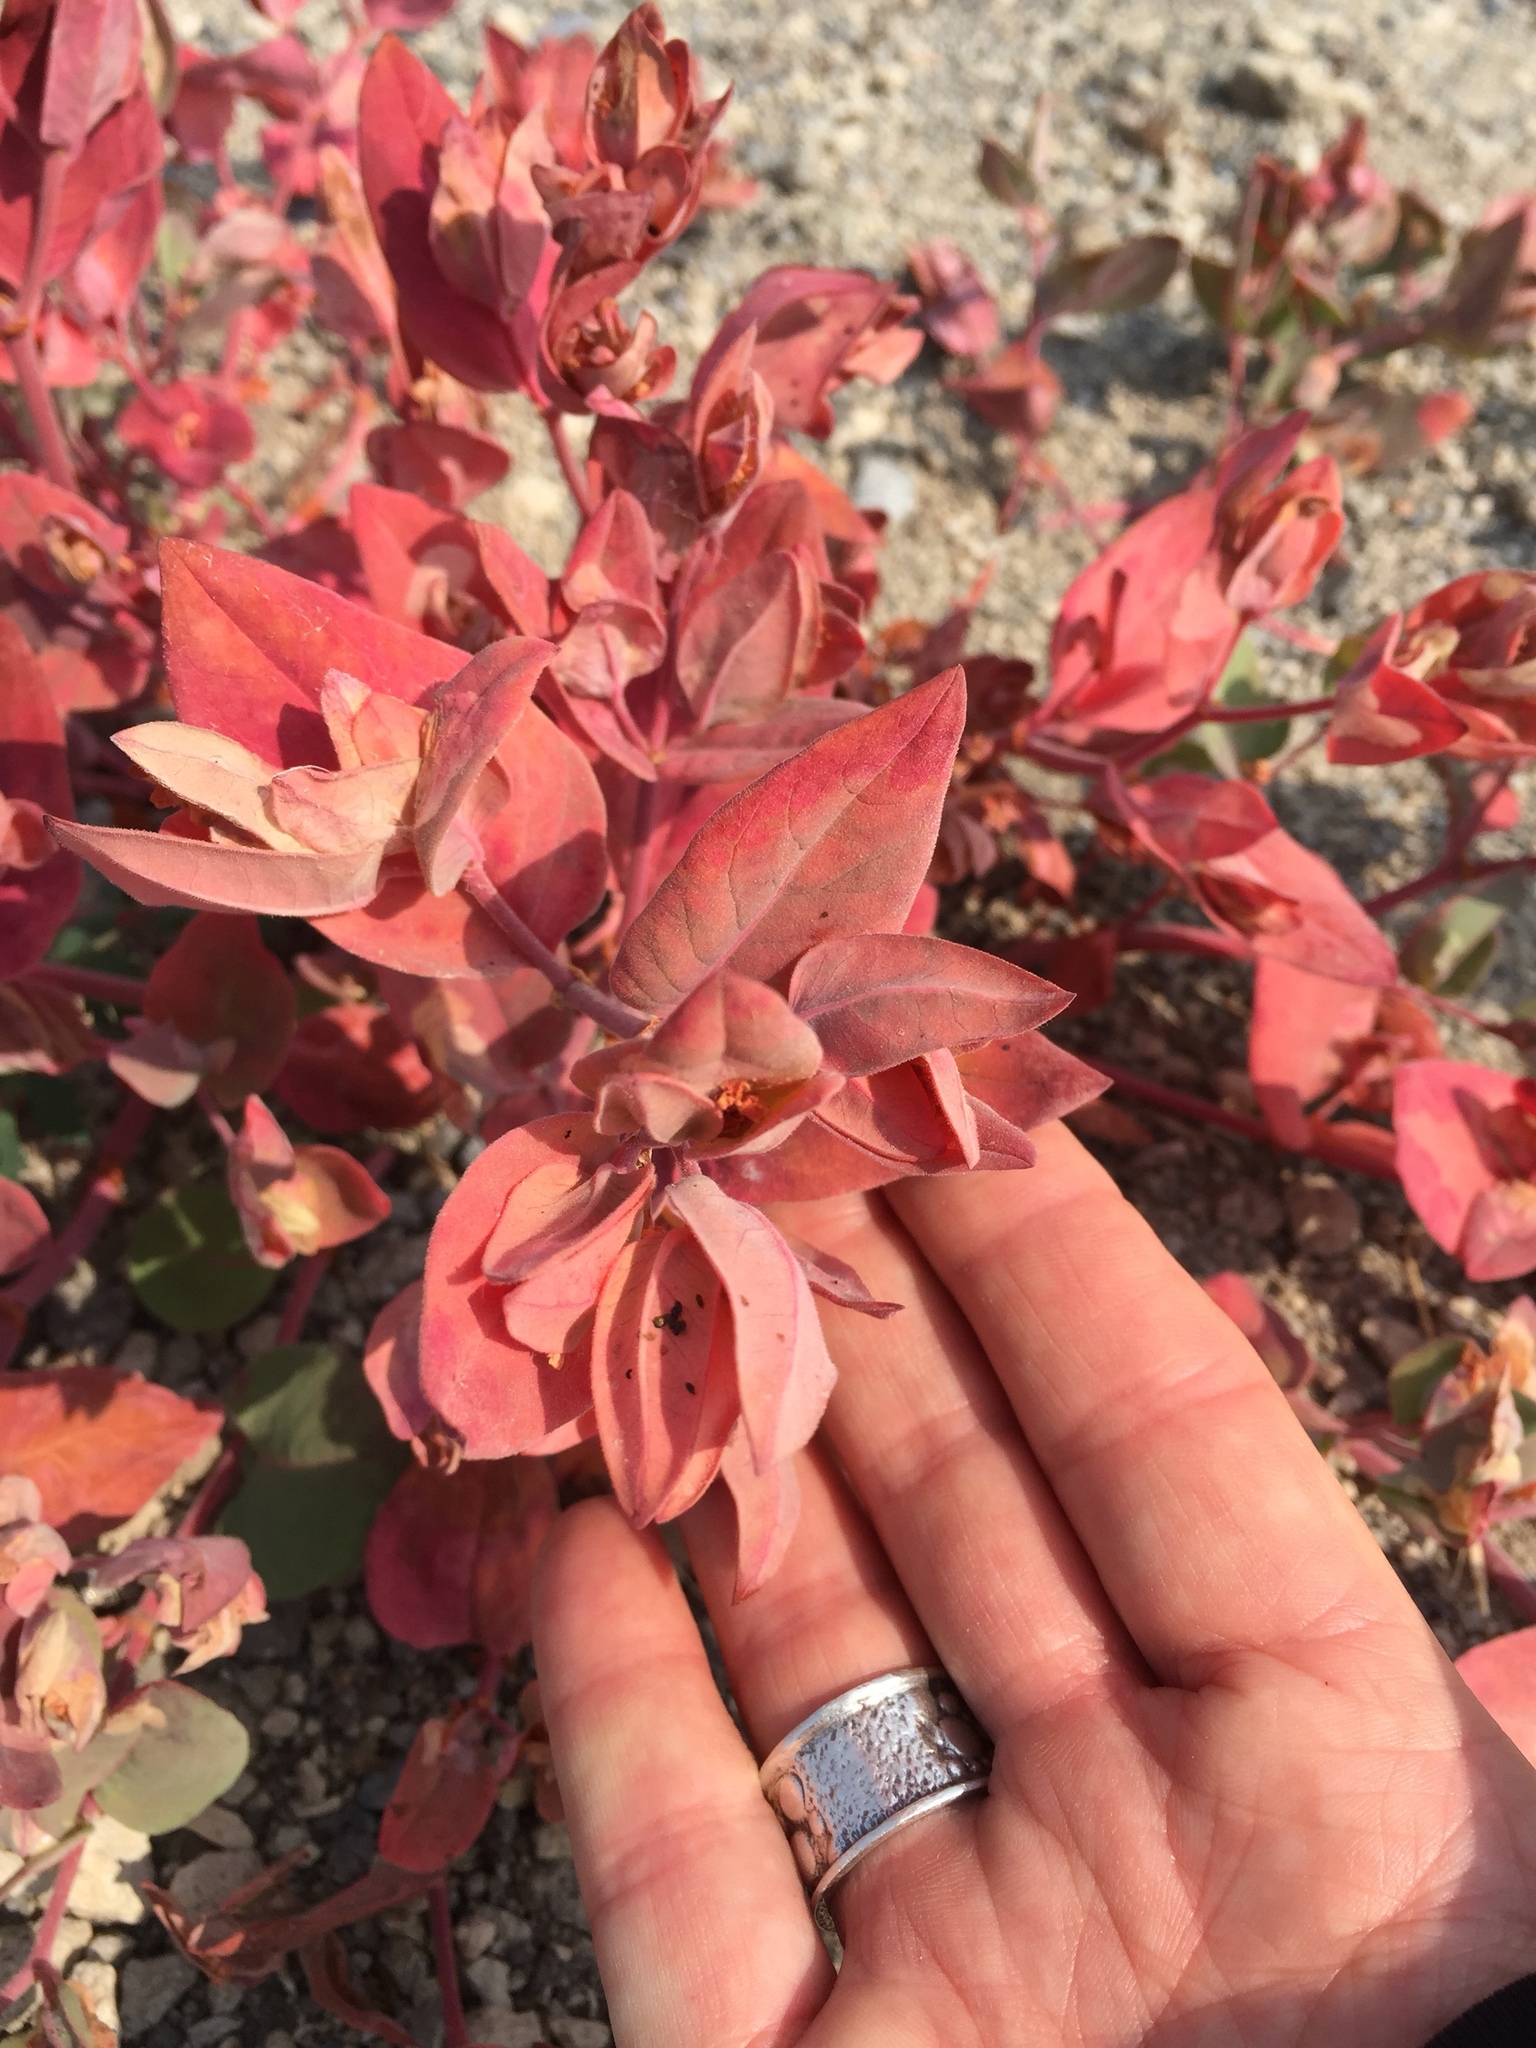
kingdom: Plantae
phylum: Tracheophyta
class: Magnoliopsida
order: Caryophyllales
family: Polygonaceae
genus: Koenigia
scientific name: Koenigia davisiae
